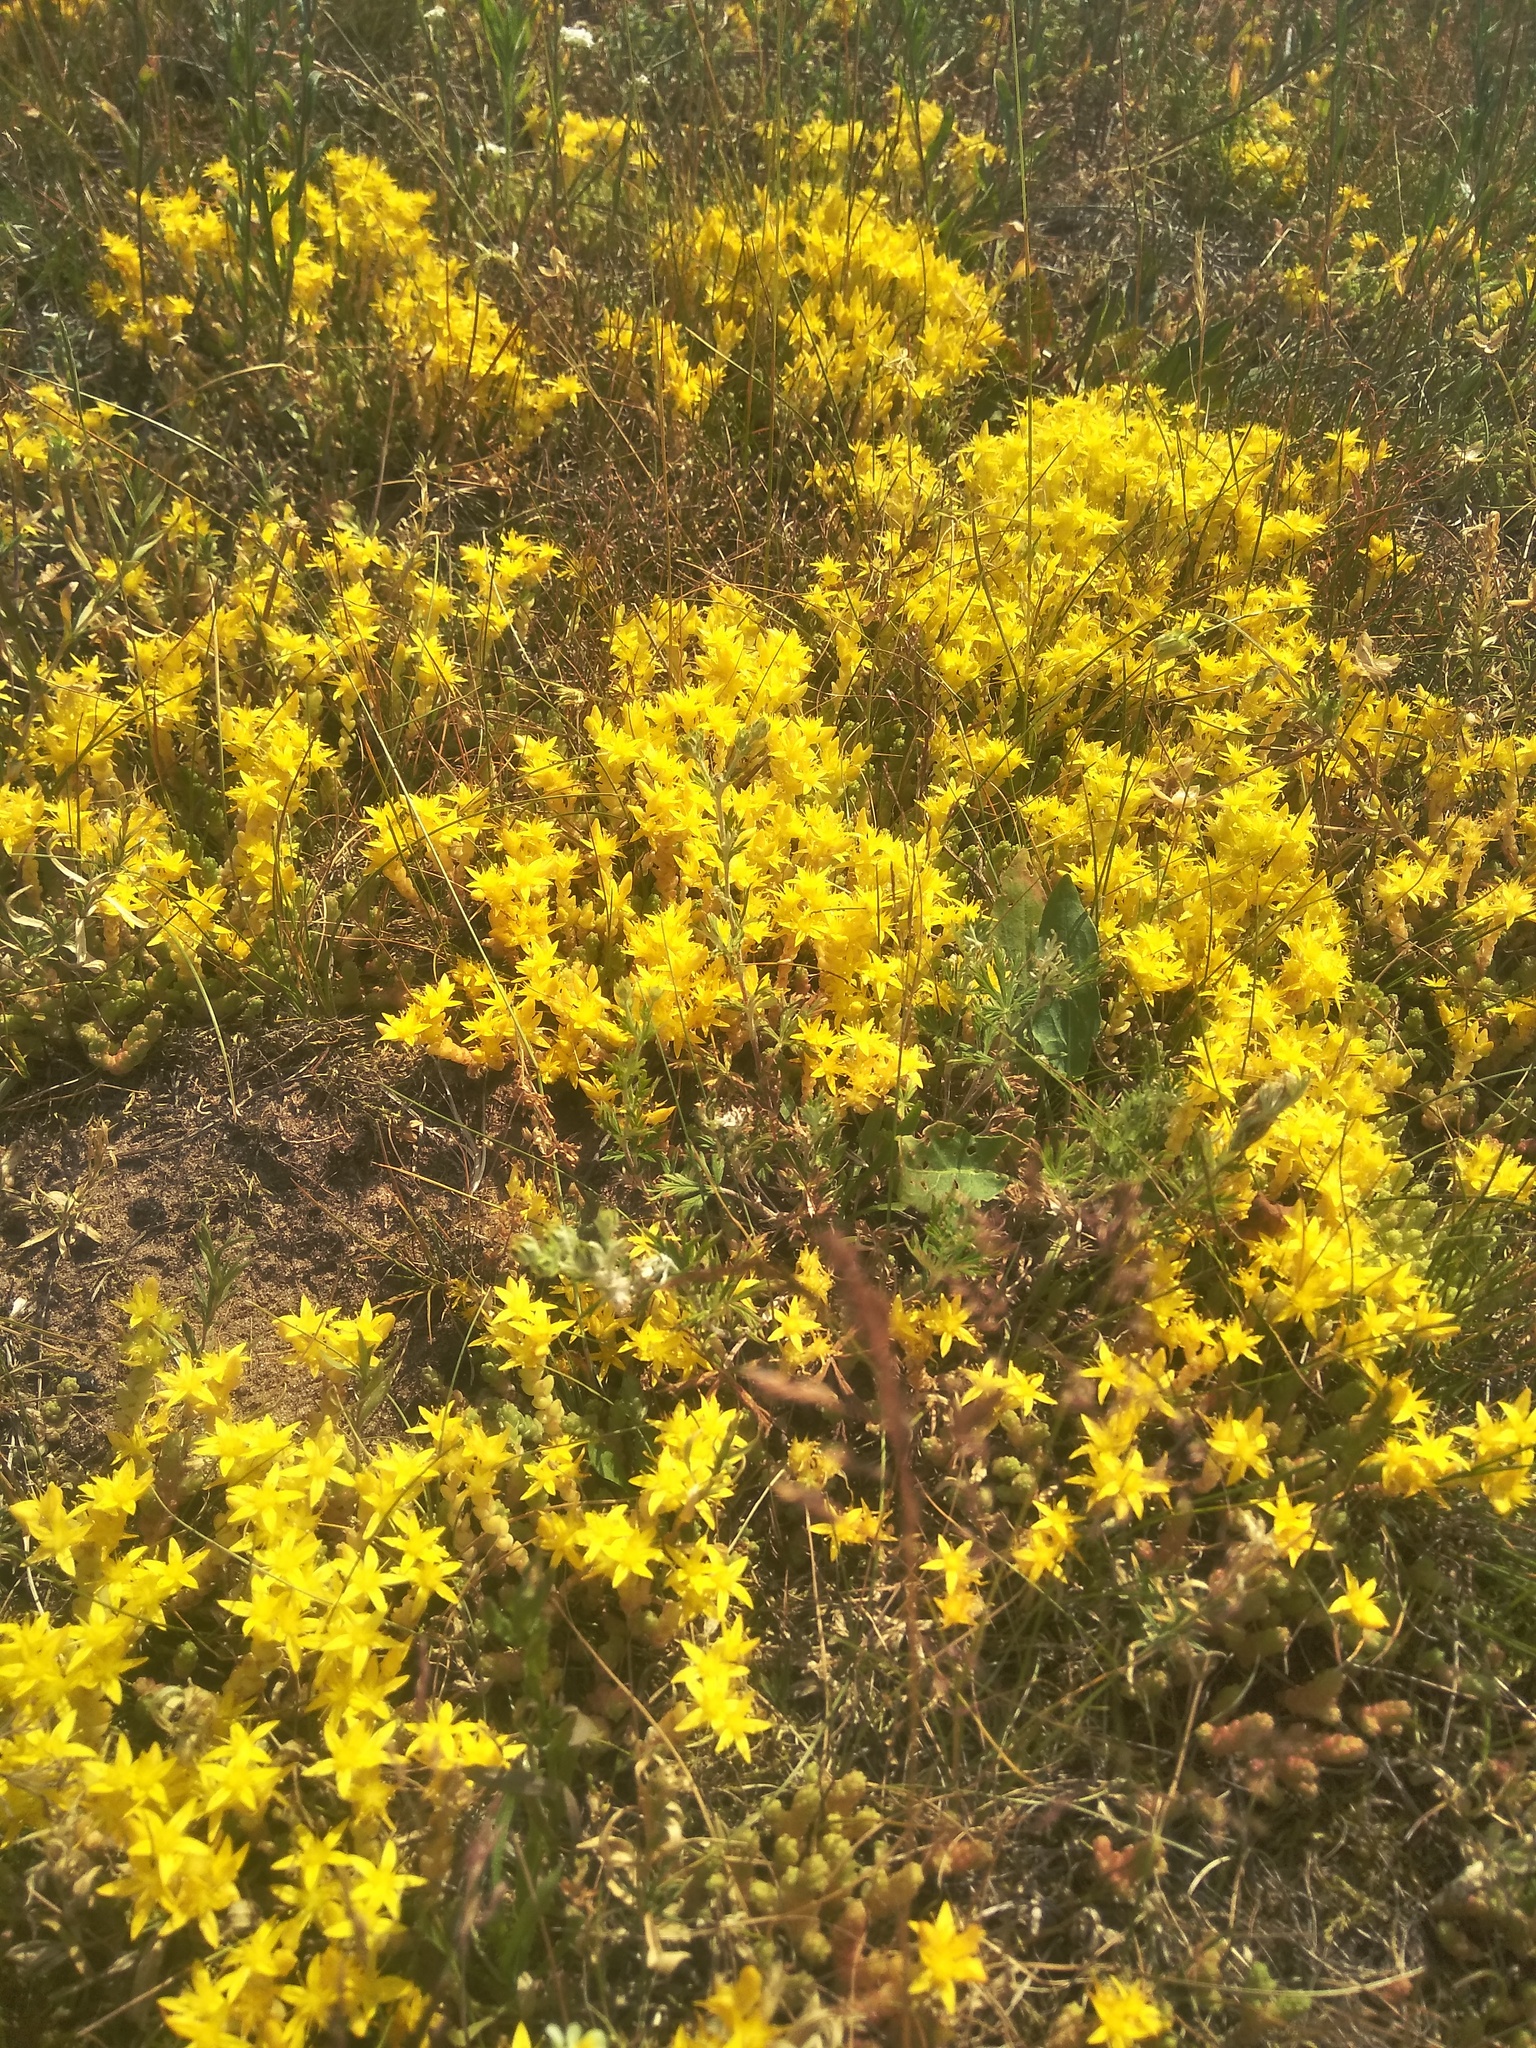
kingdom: Plantae
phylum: Tracheophyta
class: Magnoliopsida
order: Saxifragales
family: Crassulaceae
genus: Sedum
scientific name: Sedum acre
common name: Biting stonecrop
